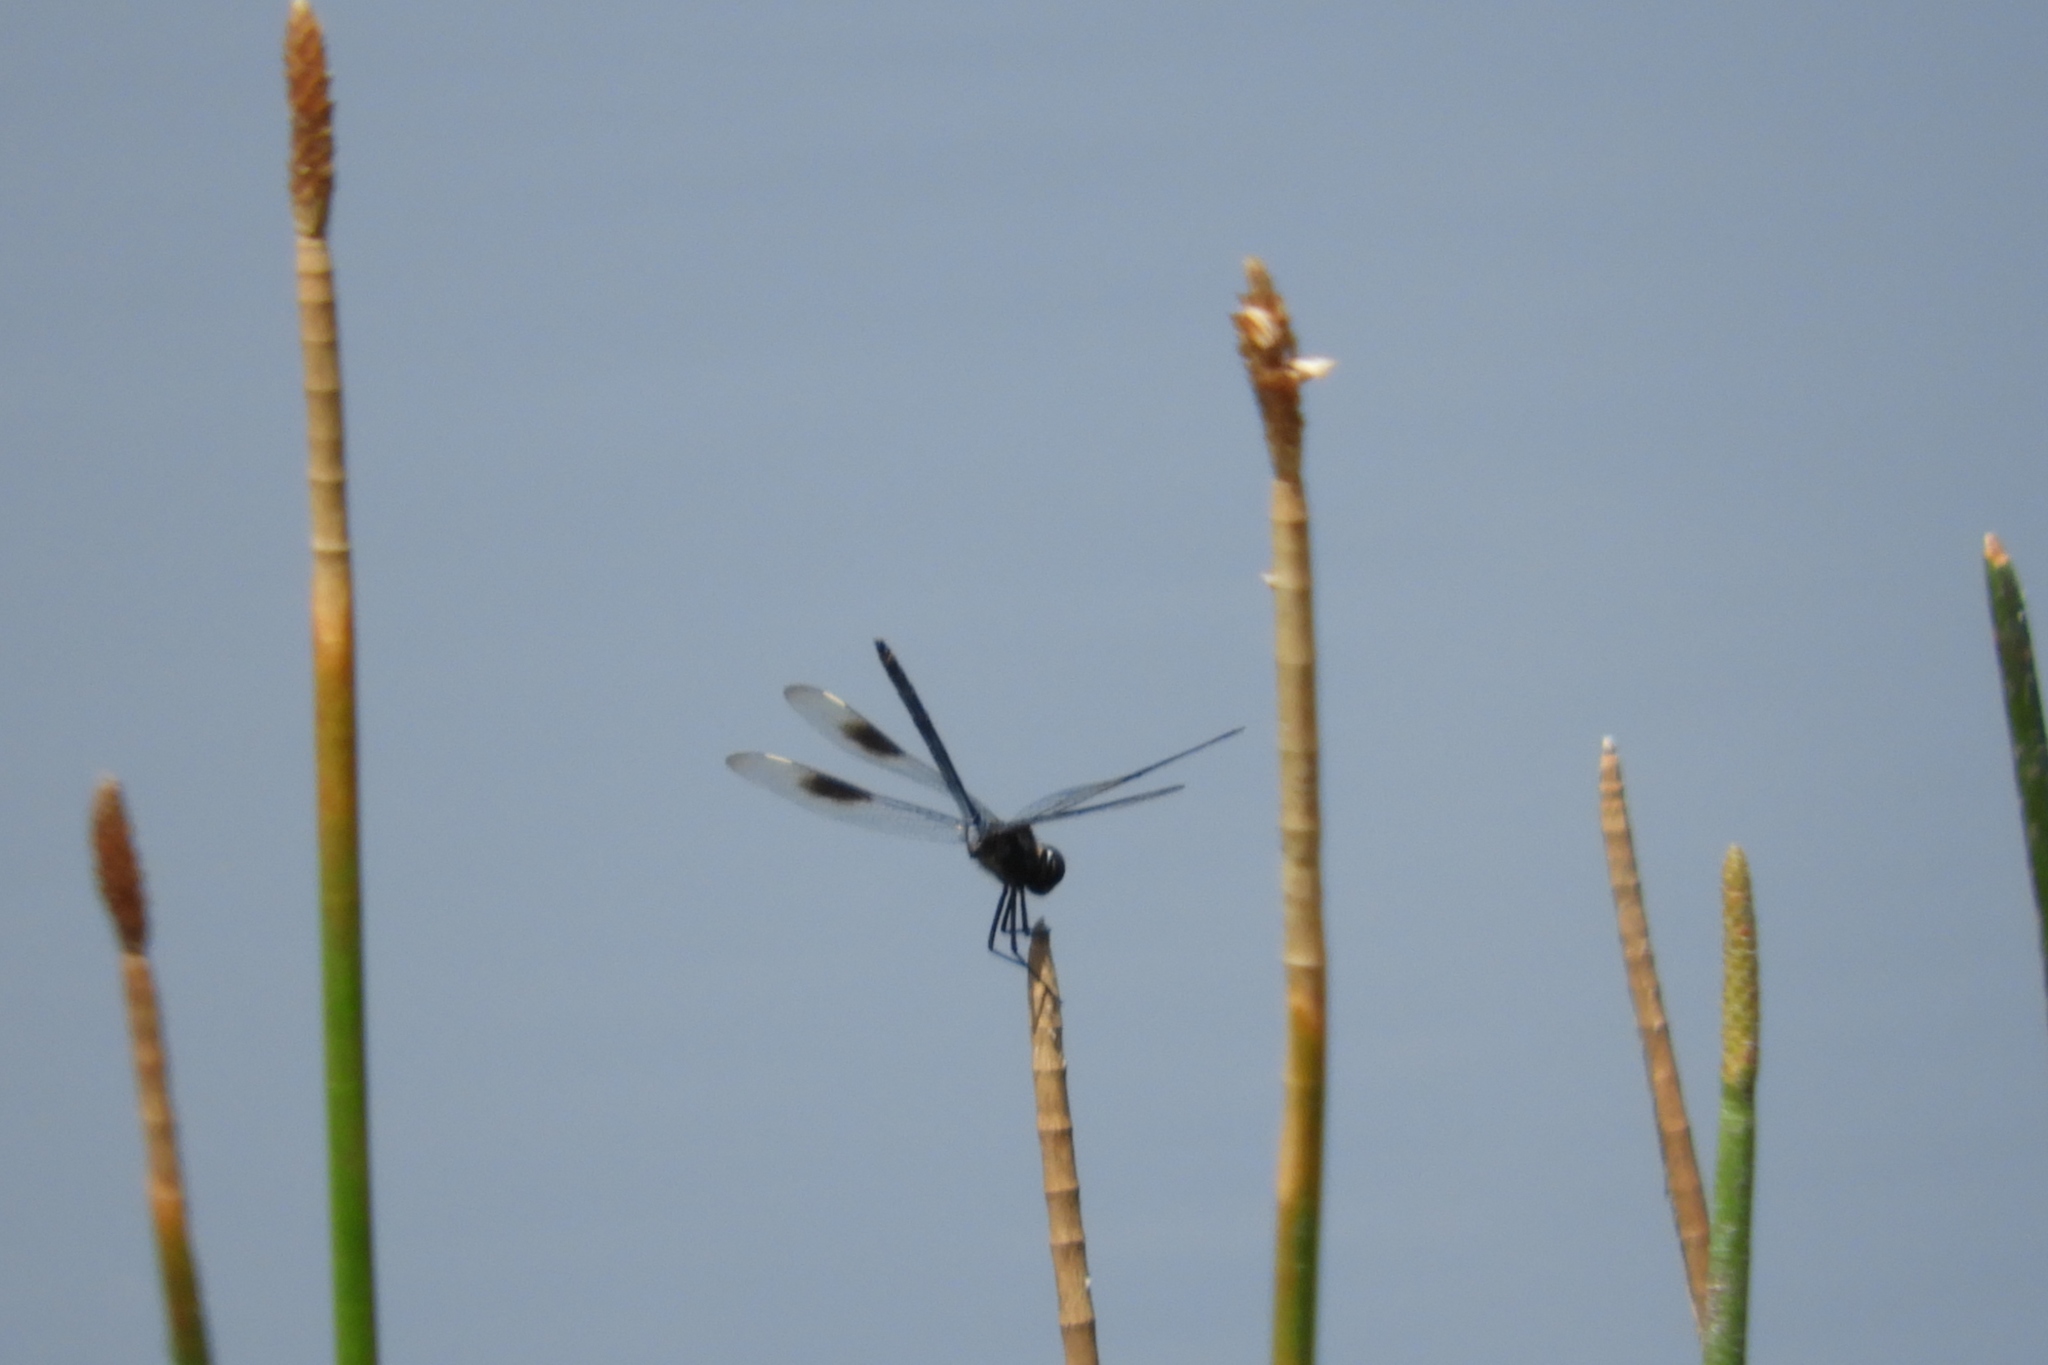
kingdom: Animalia
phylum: Arthropoda
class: Insecta
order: Odonata
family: Libellulidae
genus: Brachymesia
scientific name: Brachymesia gravida
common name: Four-spotted pennant
